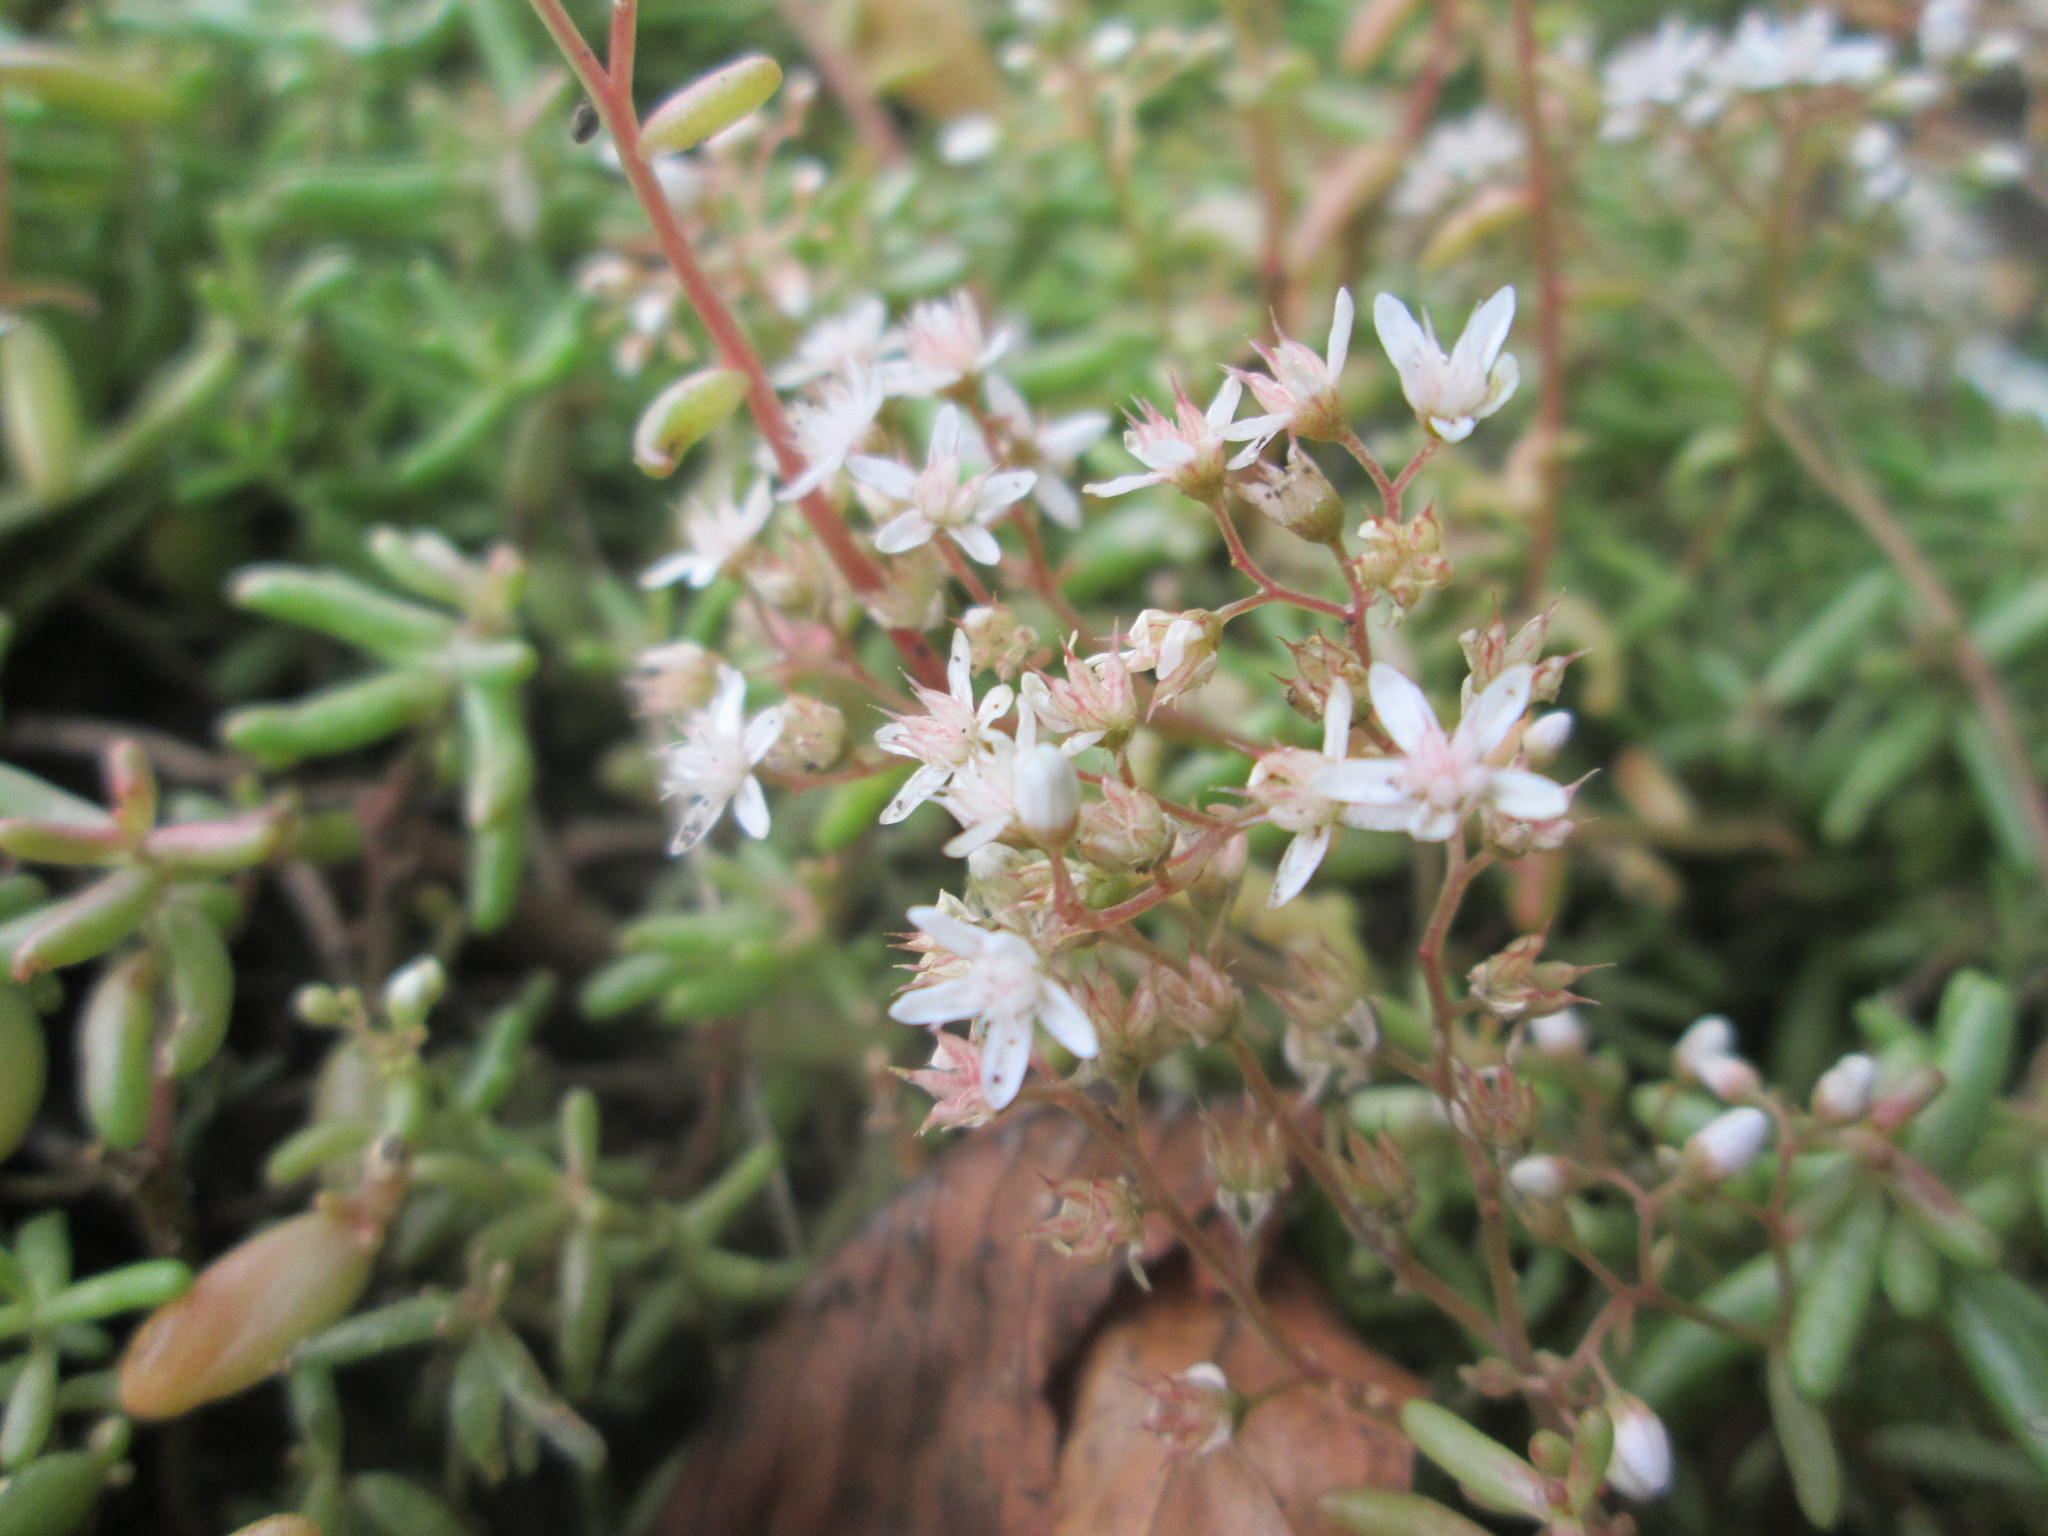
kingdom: Plantae
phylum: Tracheophyta
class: Magnoliopsida
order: Saxifragales
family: Crassulaceae
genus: Sedum
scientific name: Sedum album
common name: White stonecrop
